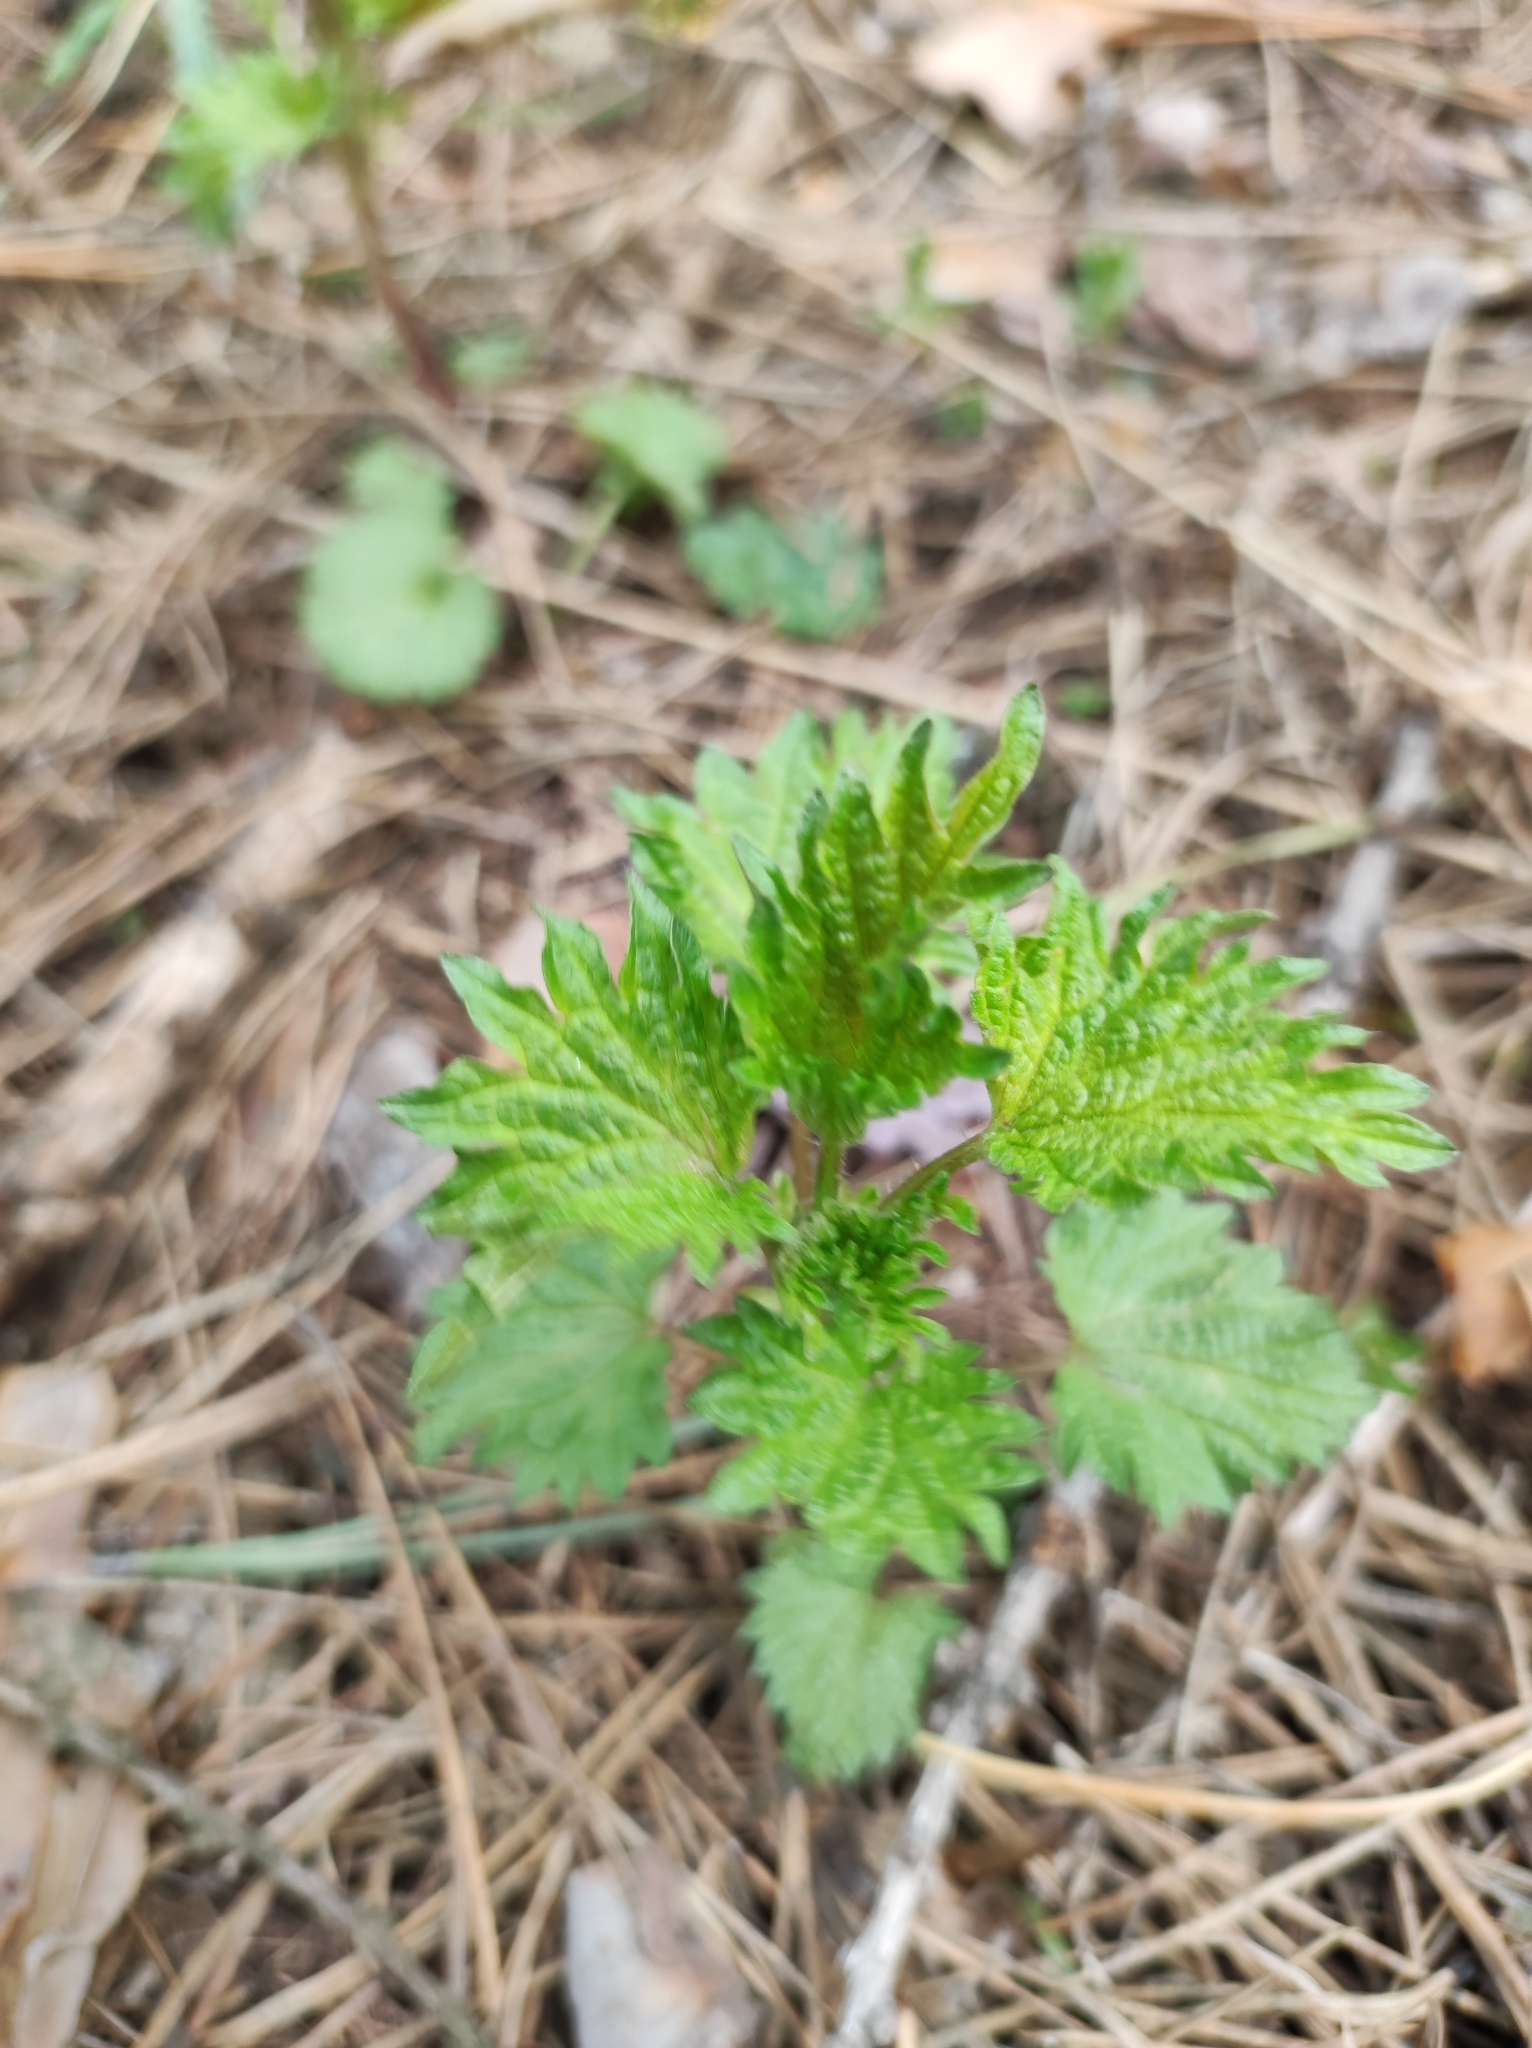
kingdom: Plantae
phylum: Tracheophyta
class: Magnoliopsida
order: Rosales
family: Urticaceae
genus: Urtica
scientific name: Urtica dioica
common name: Common nettle
